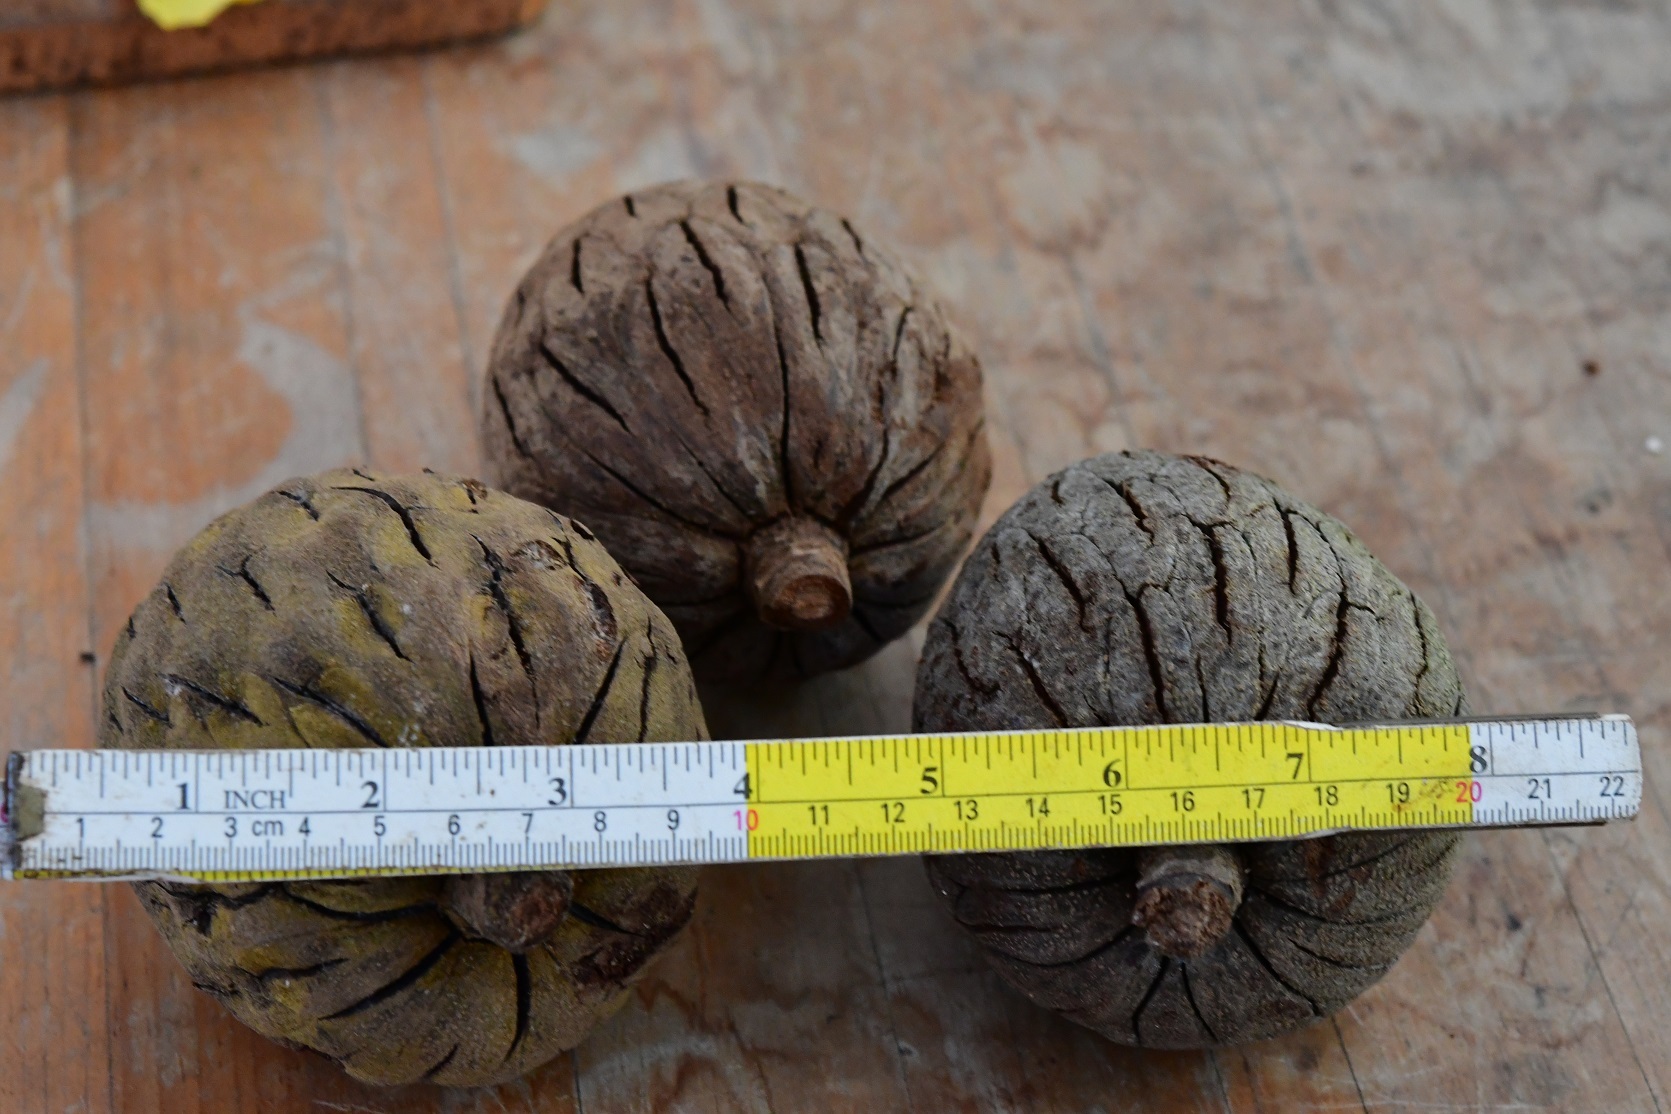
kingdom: Plantae
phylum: Tracheophyta
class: Magnoliopsida
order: Magnoliales
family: Magnoliaceae
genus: Magnolia
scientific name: Magnolia perezfarrerae
